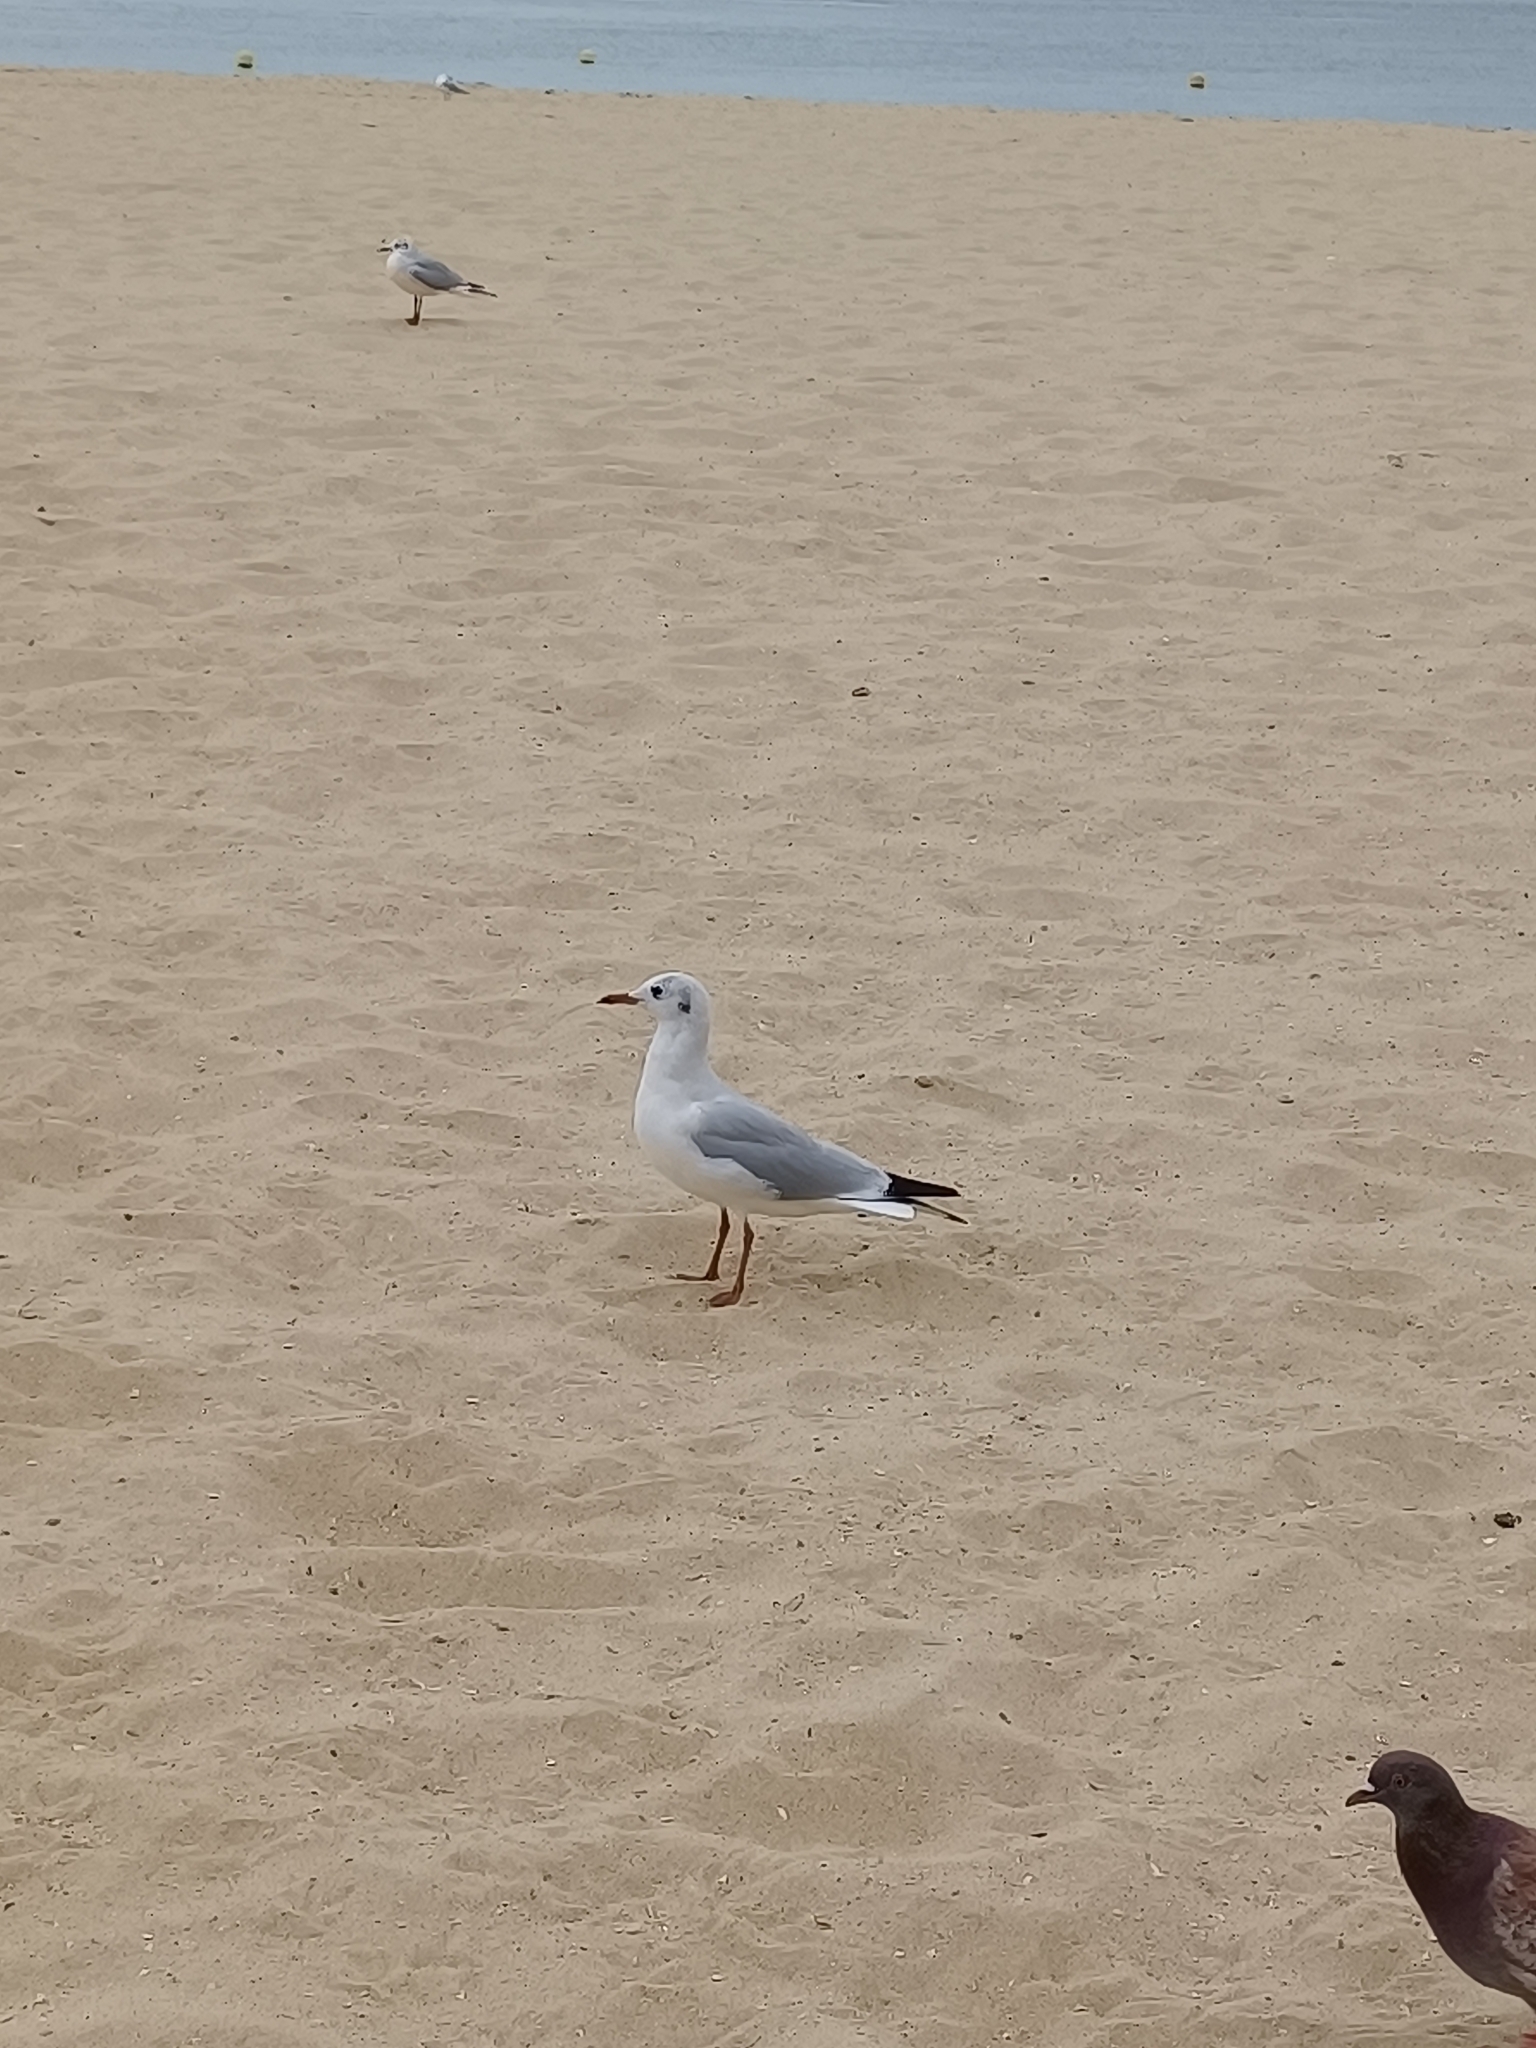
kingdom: Animalia
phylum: Chordata
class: Aves
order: Charadriiformes
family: Laridae
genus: Chroicocephalus
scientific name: Chroicocephalus ridibundus
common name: Black-headed gull
